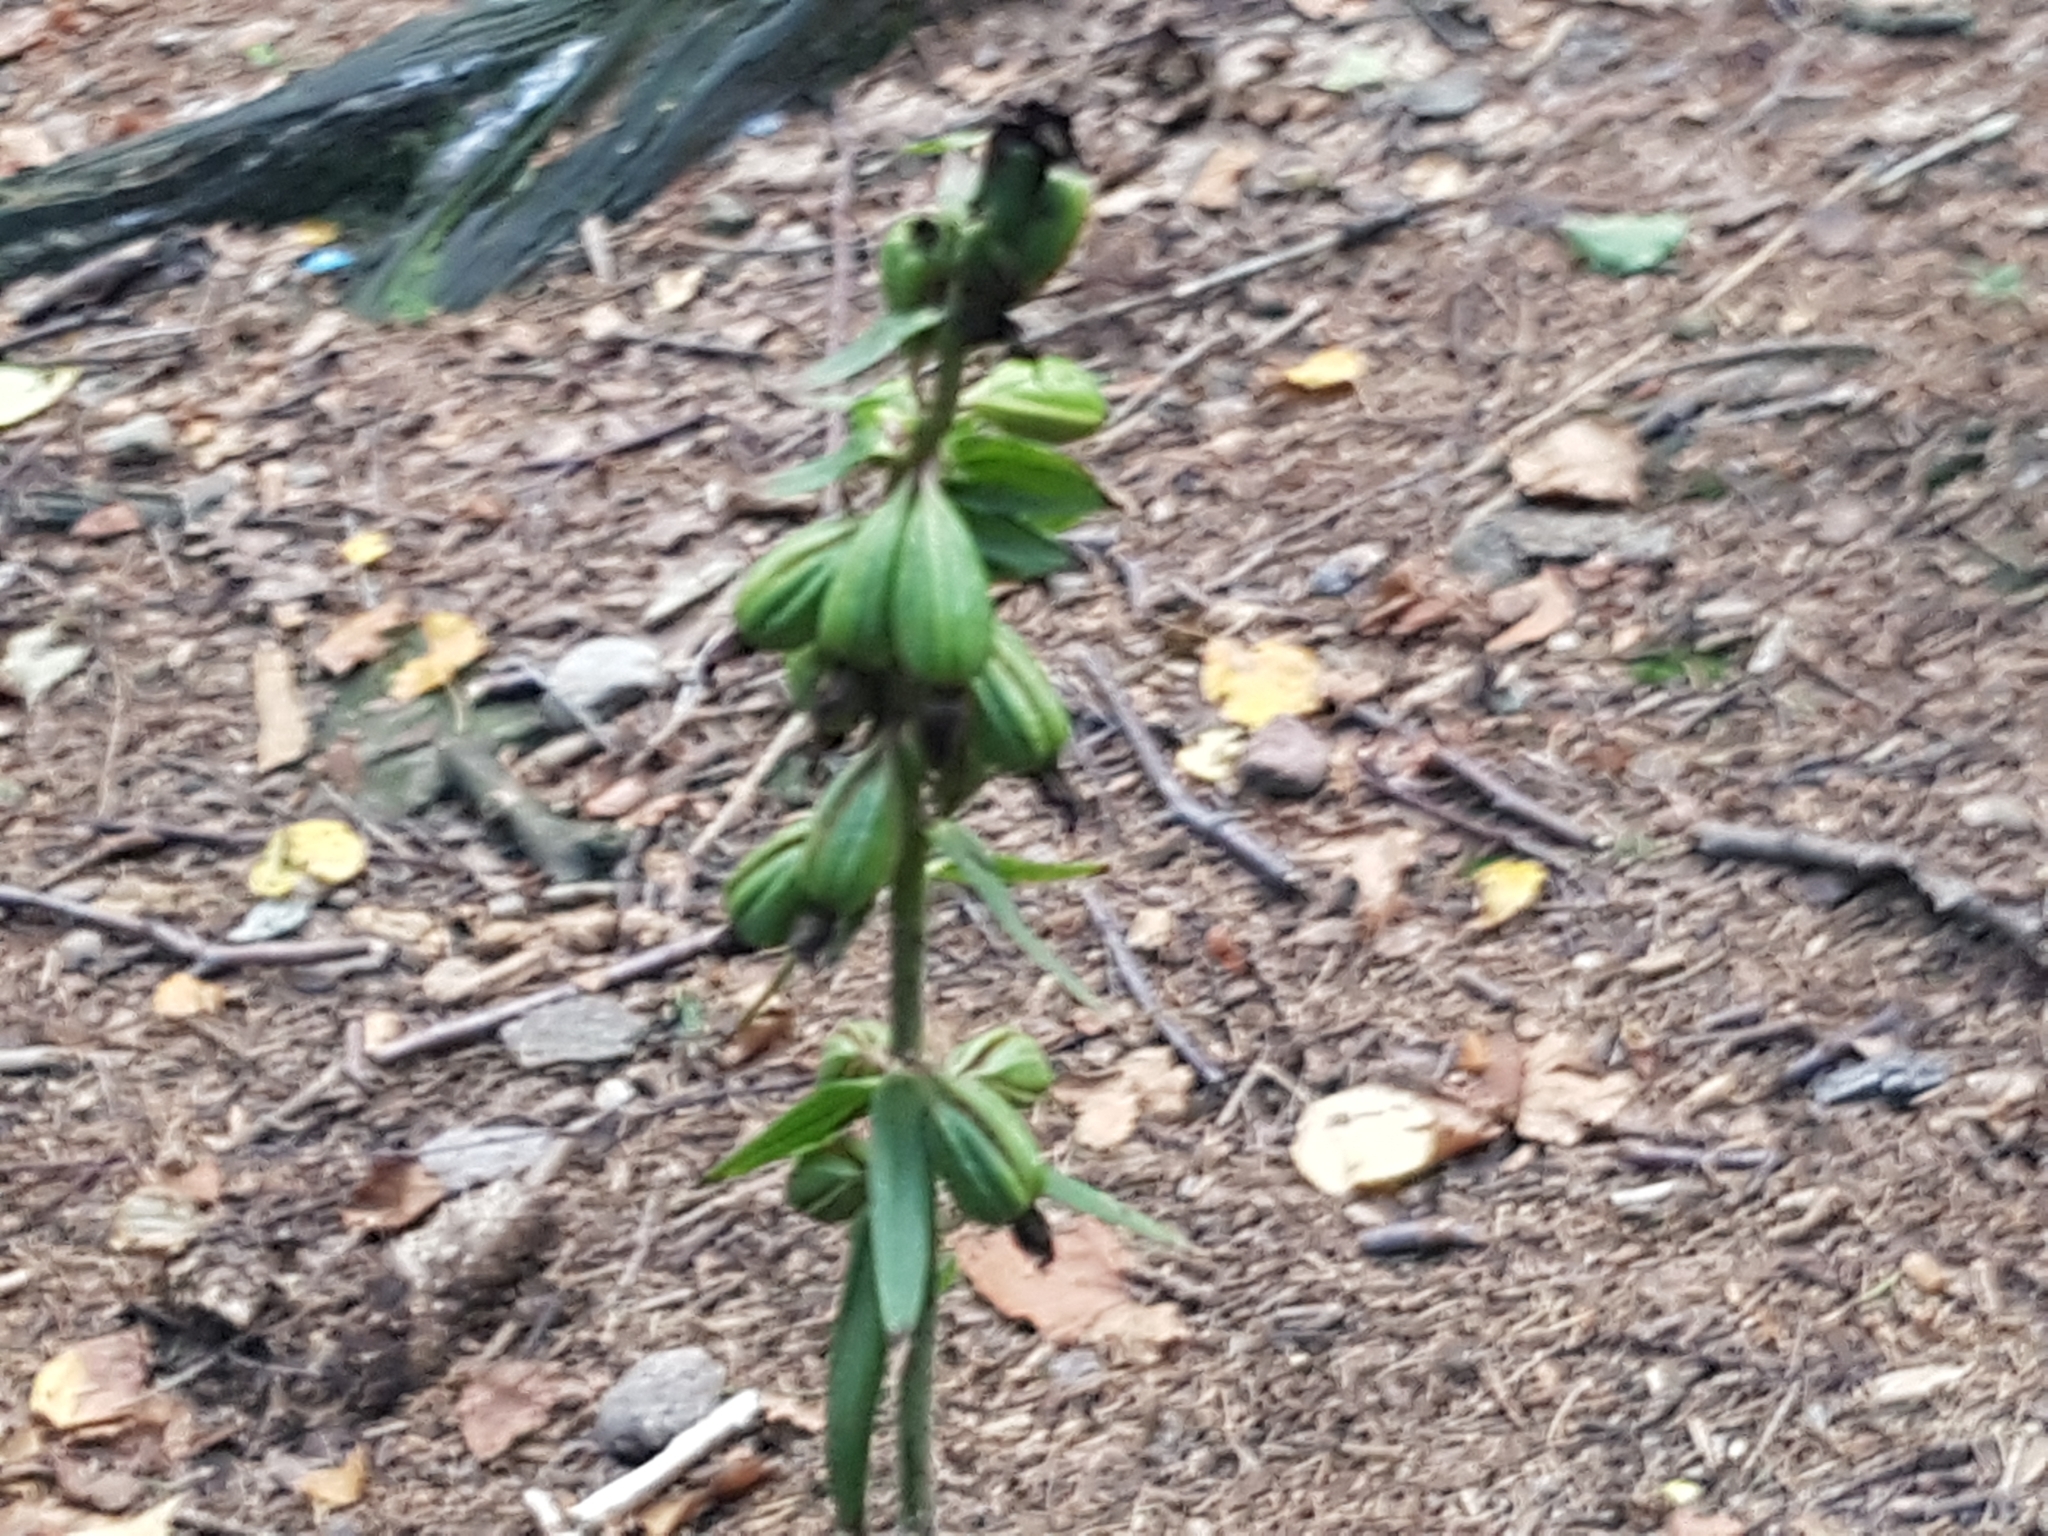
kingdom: Plantae
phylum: Tracheophyta
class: Liliopsida
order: Asparagales
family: Orchidaceae
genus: Epipactis
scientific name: Epipactis helleborine
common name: Broad-leaved helleborine
